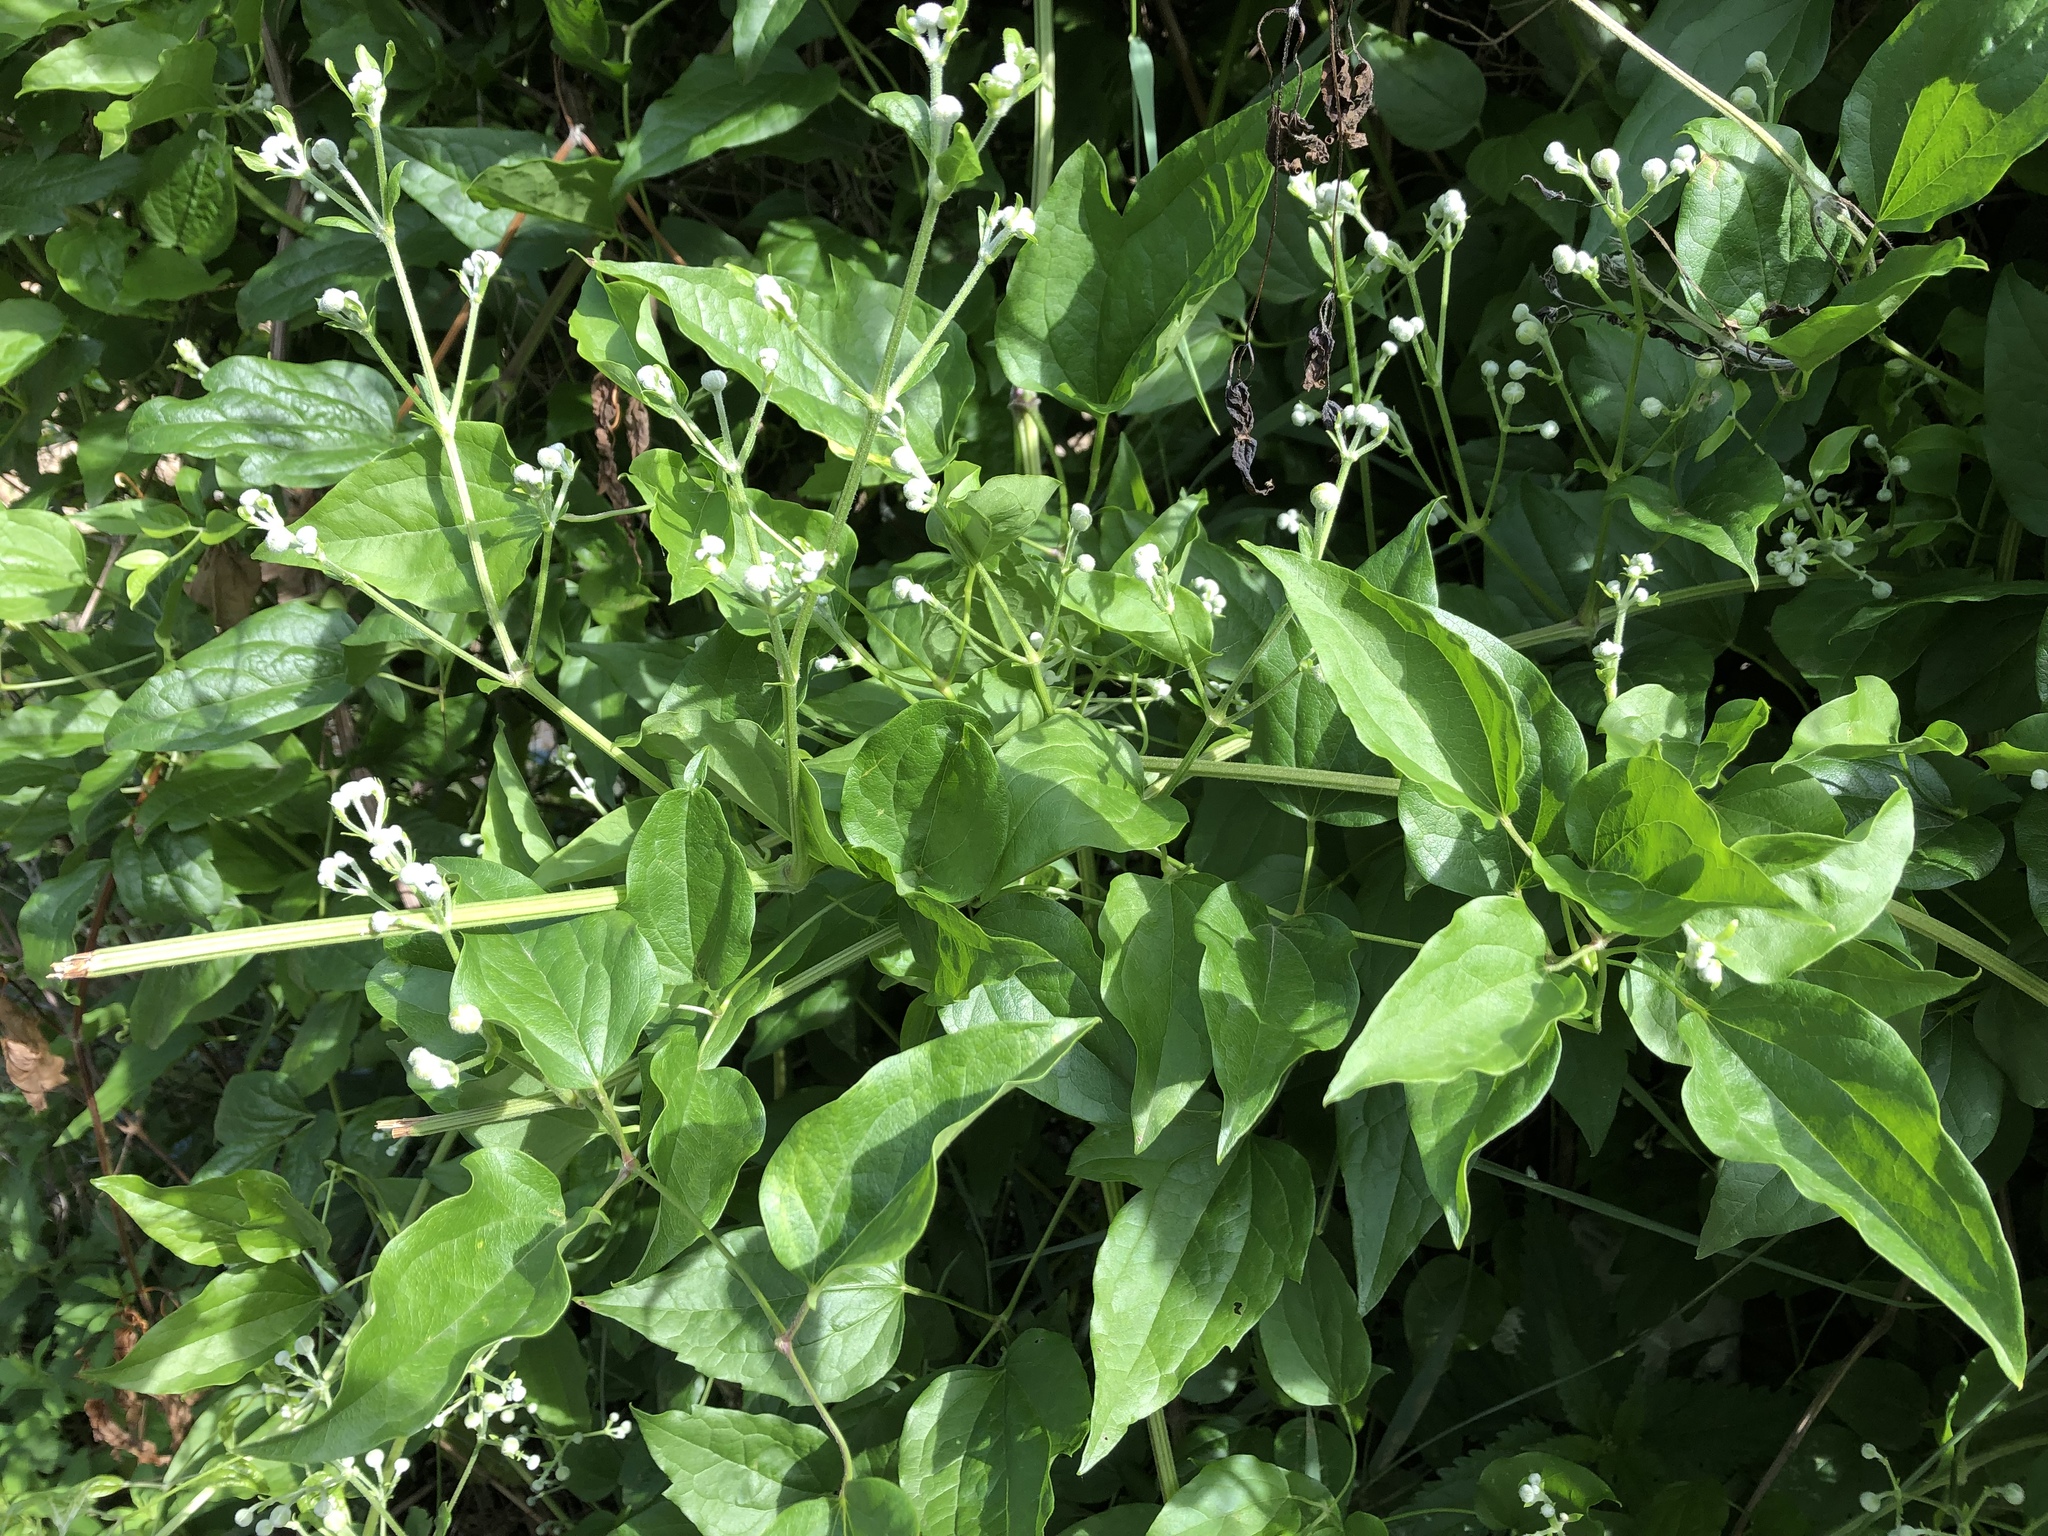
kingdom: Plantae
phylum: Tracheophyta
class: Magnoliopsida
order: Ranunculales
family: Ranunculaceae
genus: Clematis
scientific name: Clematis vitalba
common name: Evergreen clematis
